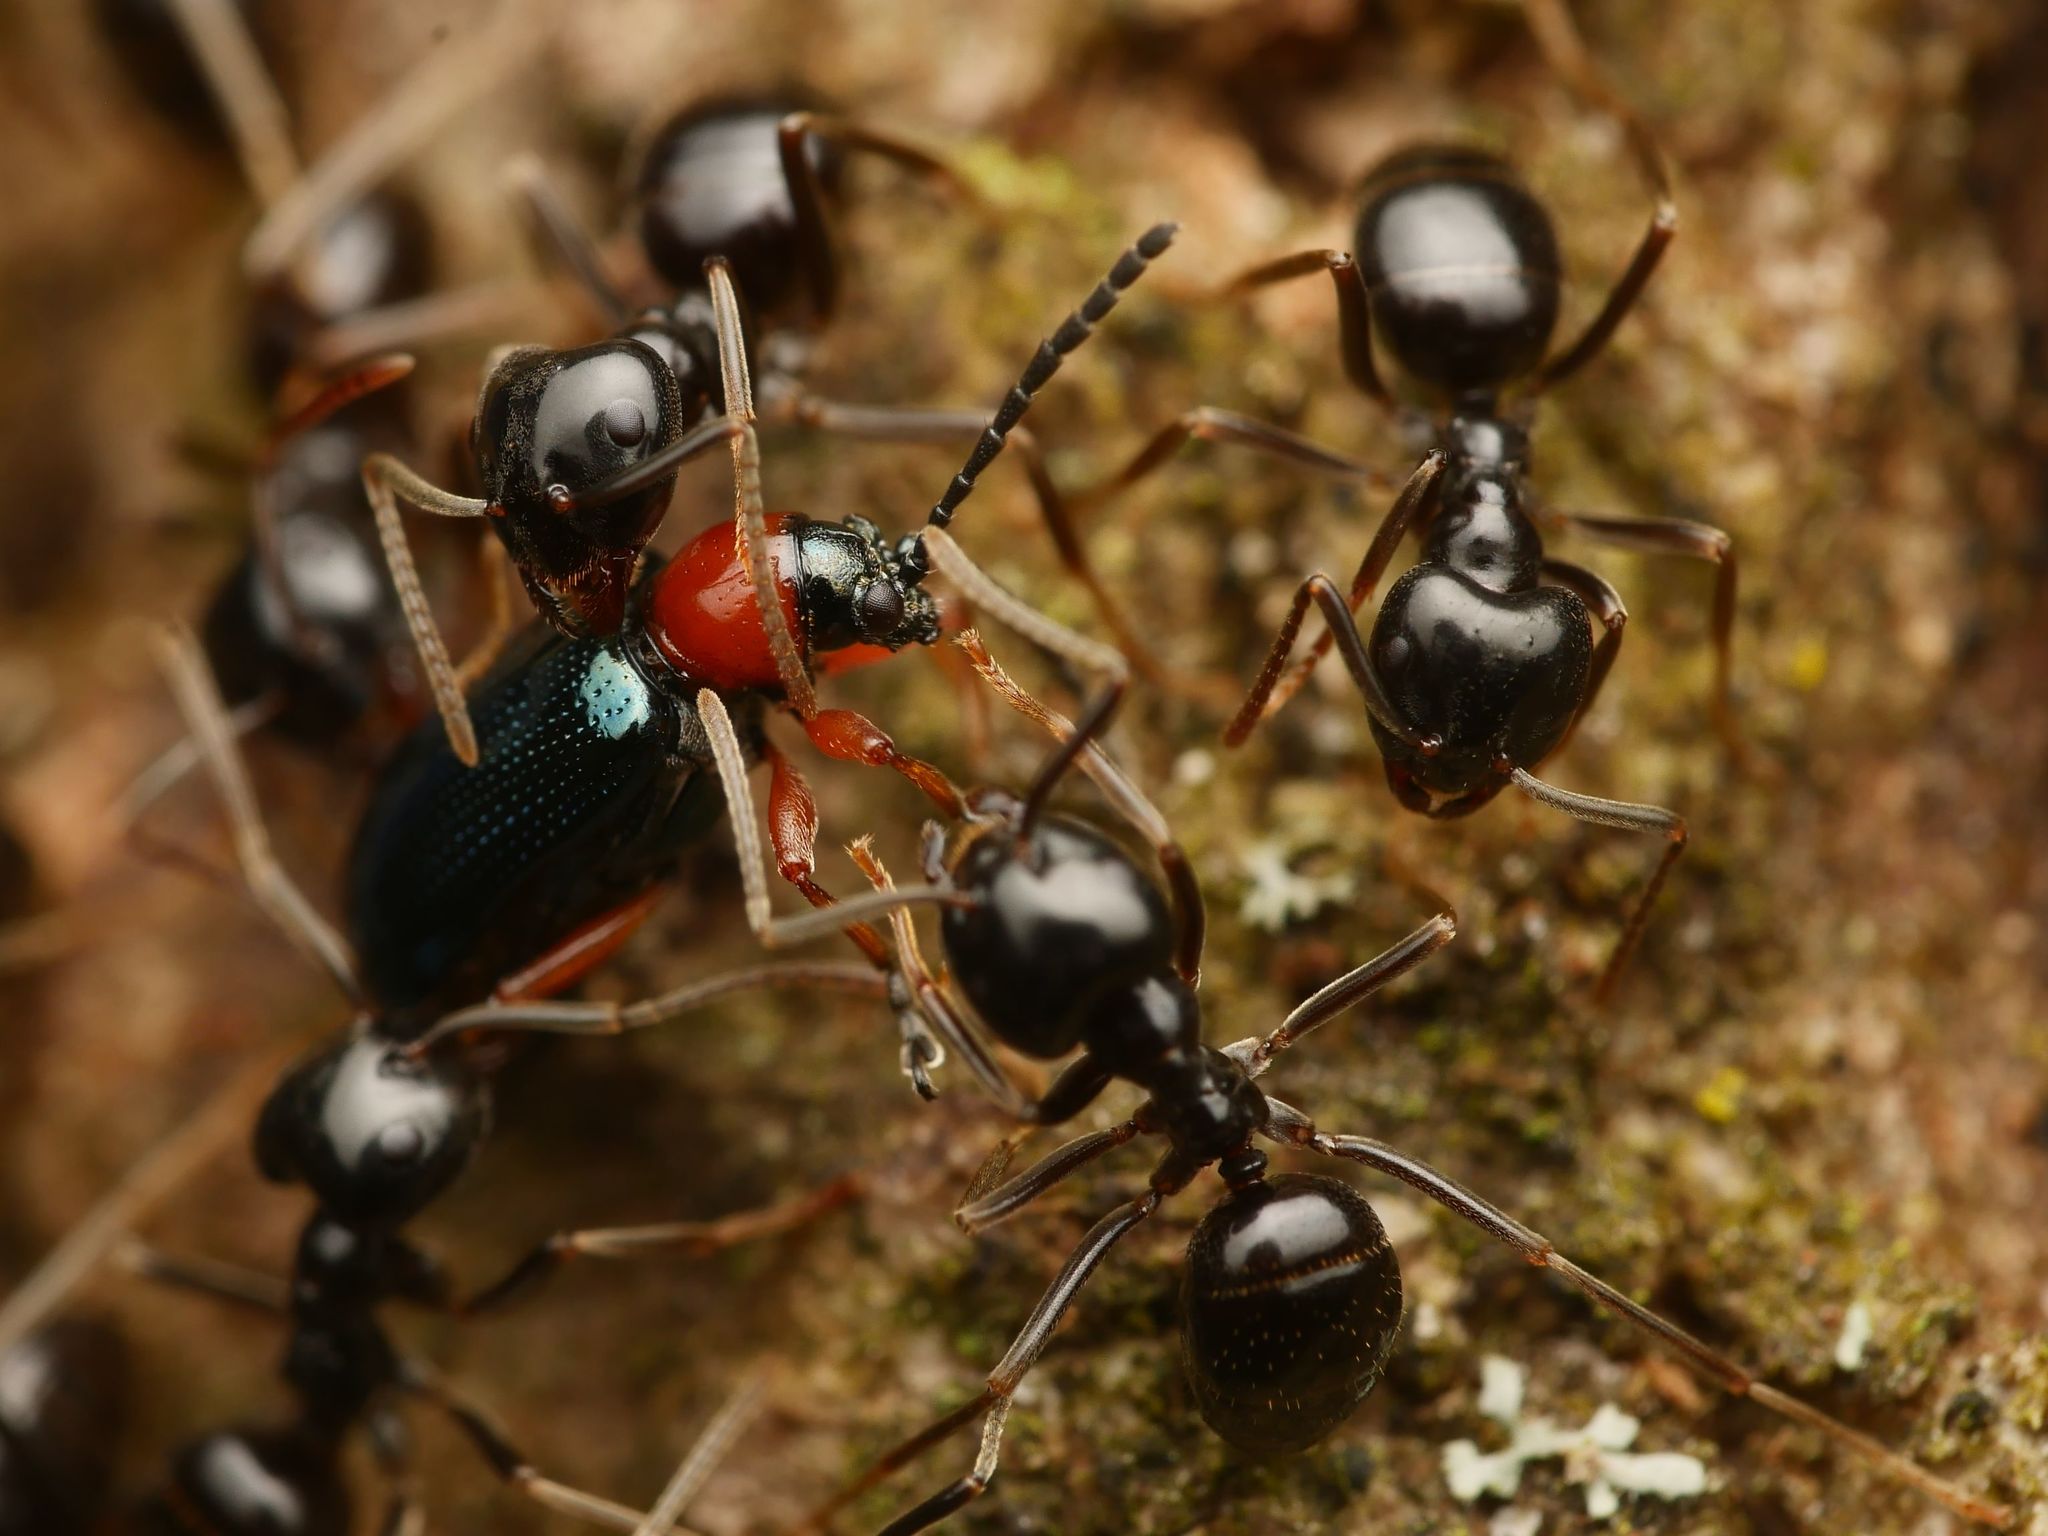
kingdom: Animalia
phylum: Arthropoda
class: Insecta
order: Hymenoptera
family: Formicidae
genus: Lasius
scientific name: Lasius fuliginosus
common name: Jet ant
